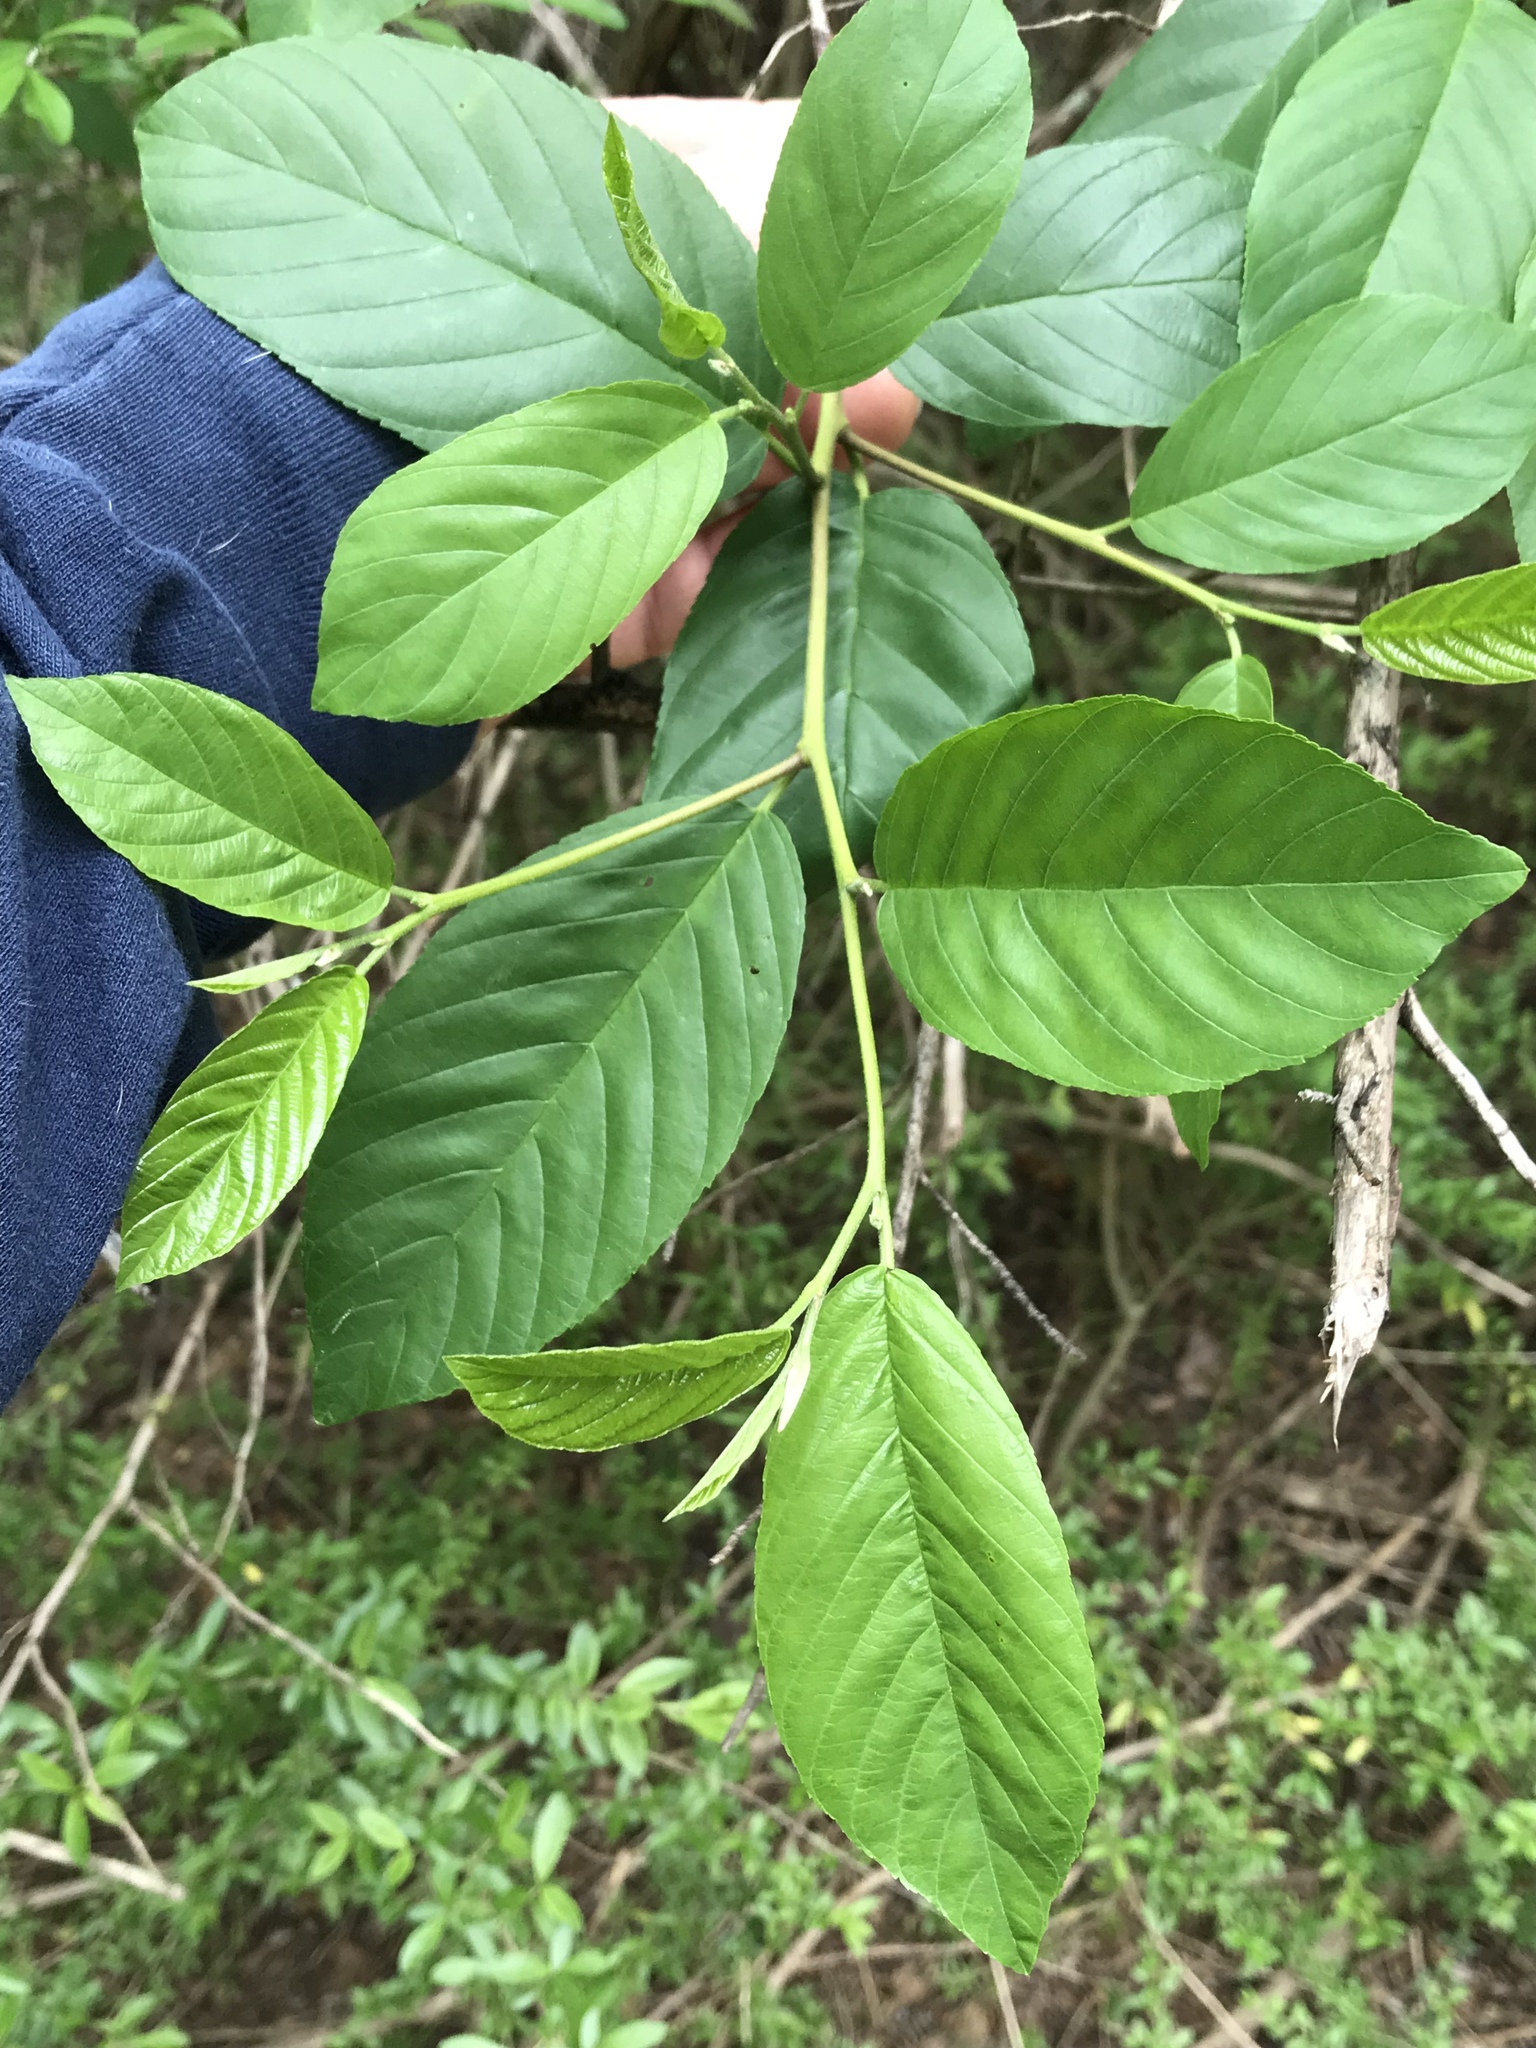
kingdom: Plantae
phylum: Tracheophyta
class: Magnoliopsida
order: Rosales
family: Rhamnaceae
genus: Frangula
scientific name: Frangula caroliniana
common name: Carolina buckthorn
